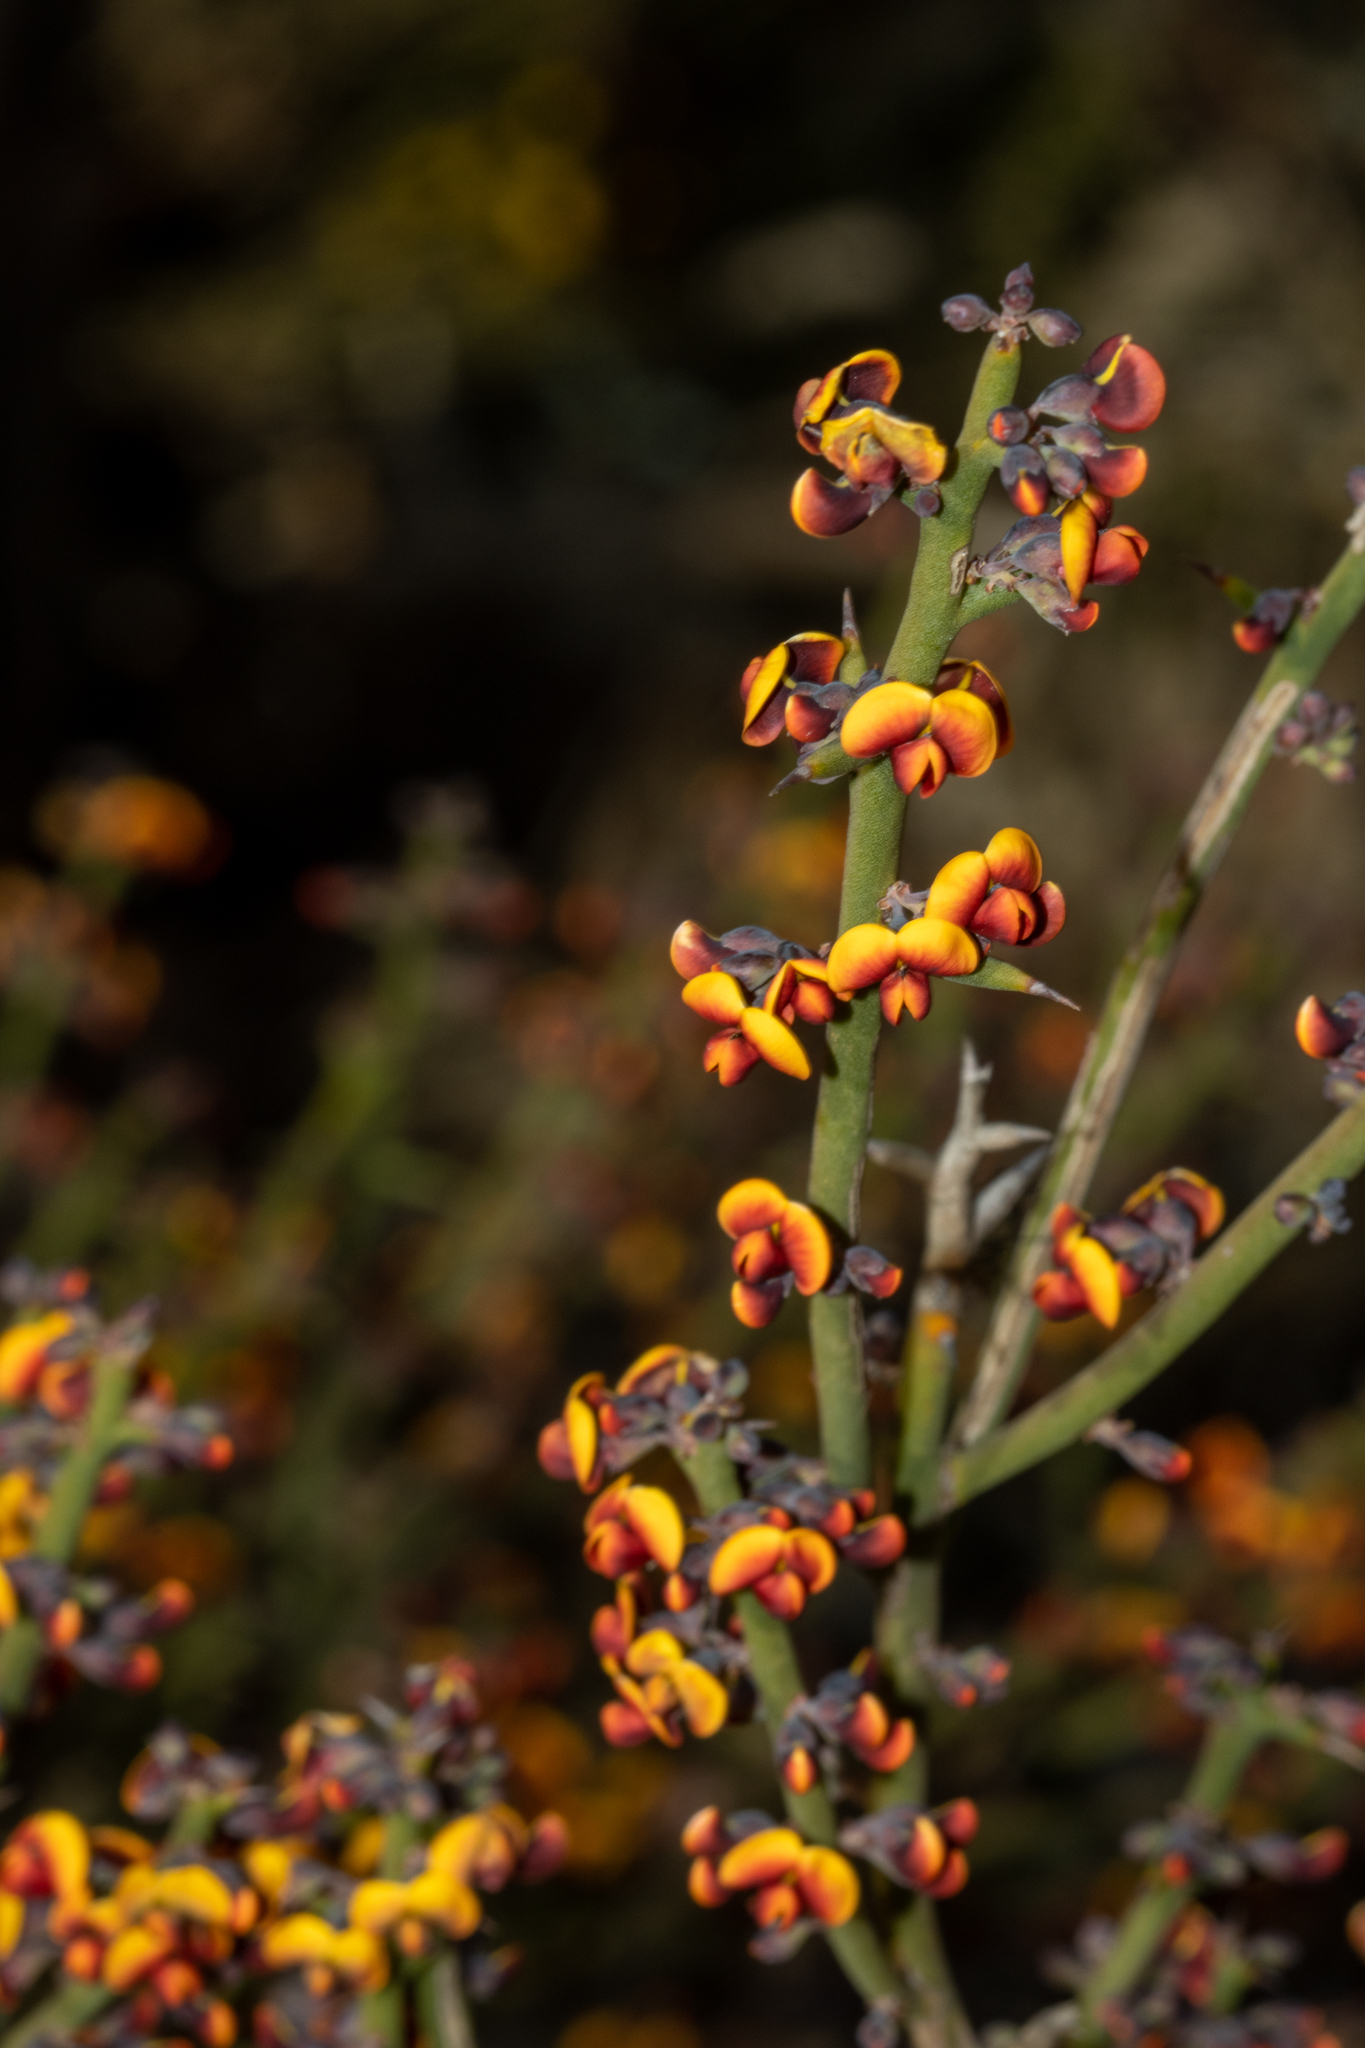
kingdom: Plantae
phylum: Tracheophyta
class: Magnoliopsida
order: Fabales
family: Fabaceae
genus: Daviesia
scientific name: Daviesia aphylla
